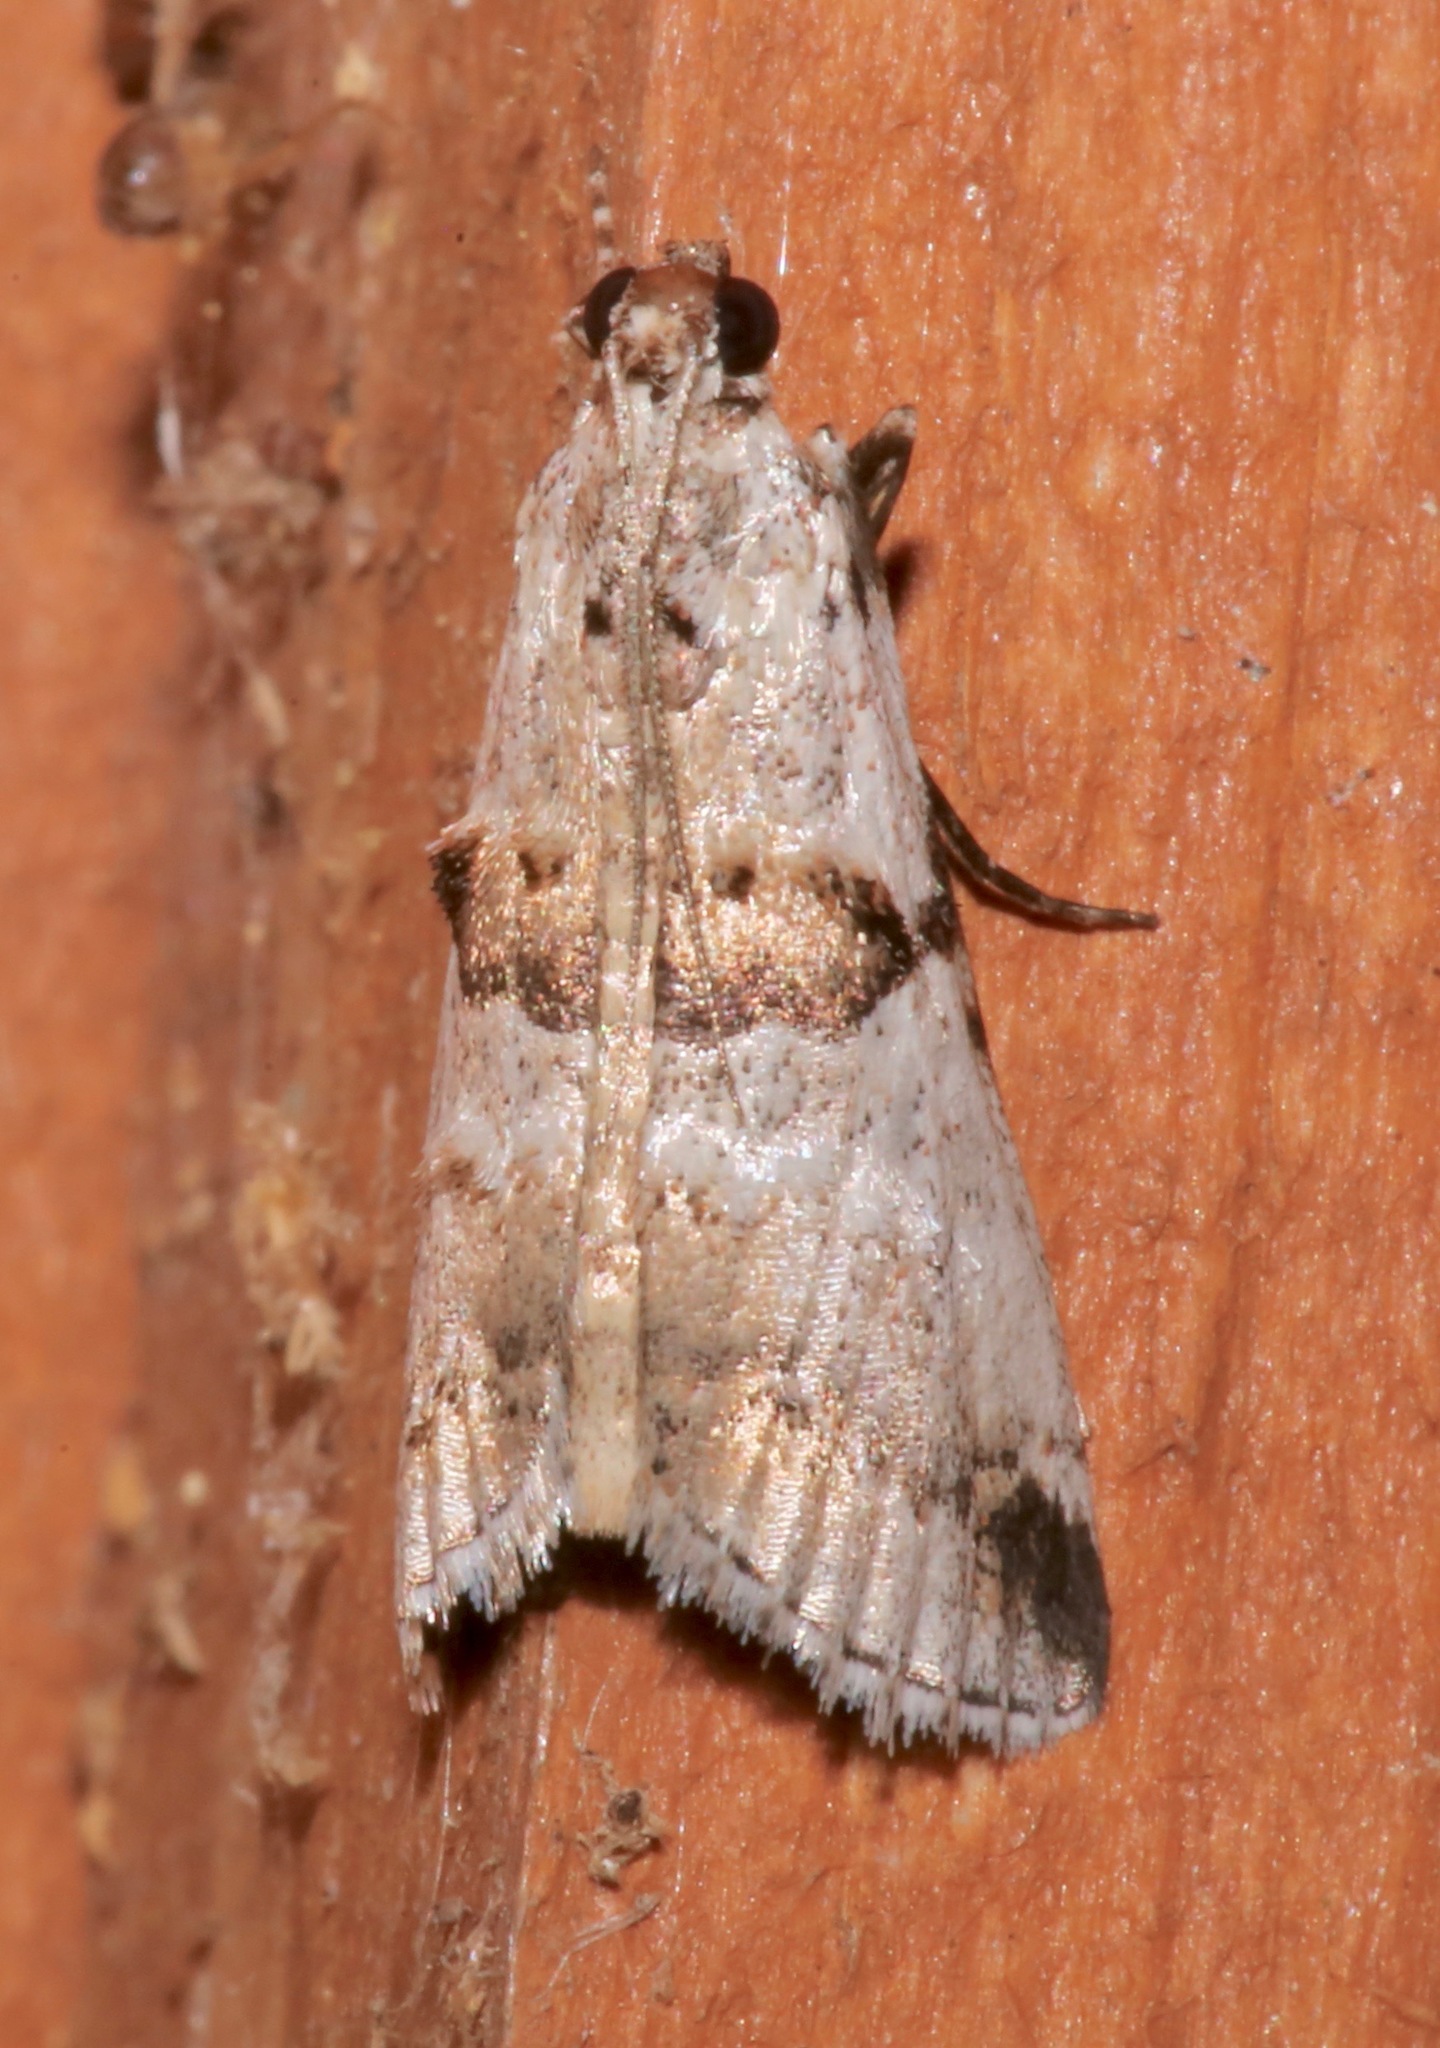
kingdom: Animalia
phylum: Arthropoda
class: Insecta
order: Lepidoptera
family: Pyralidae
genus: Tallula
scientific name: Tallula atrifascialis
